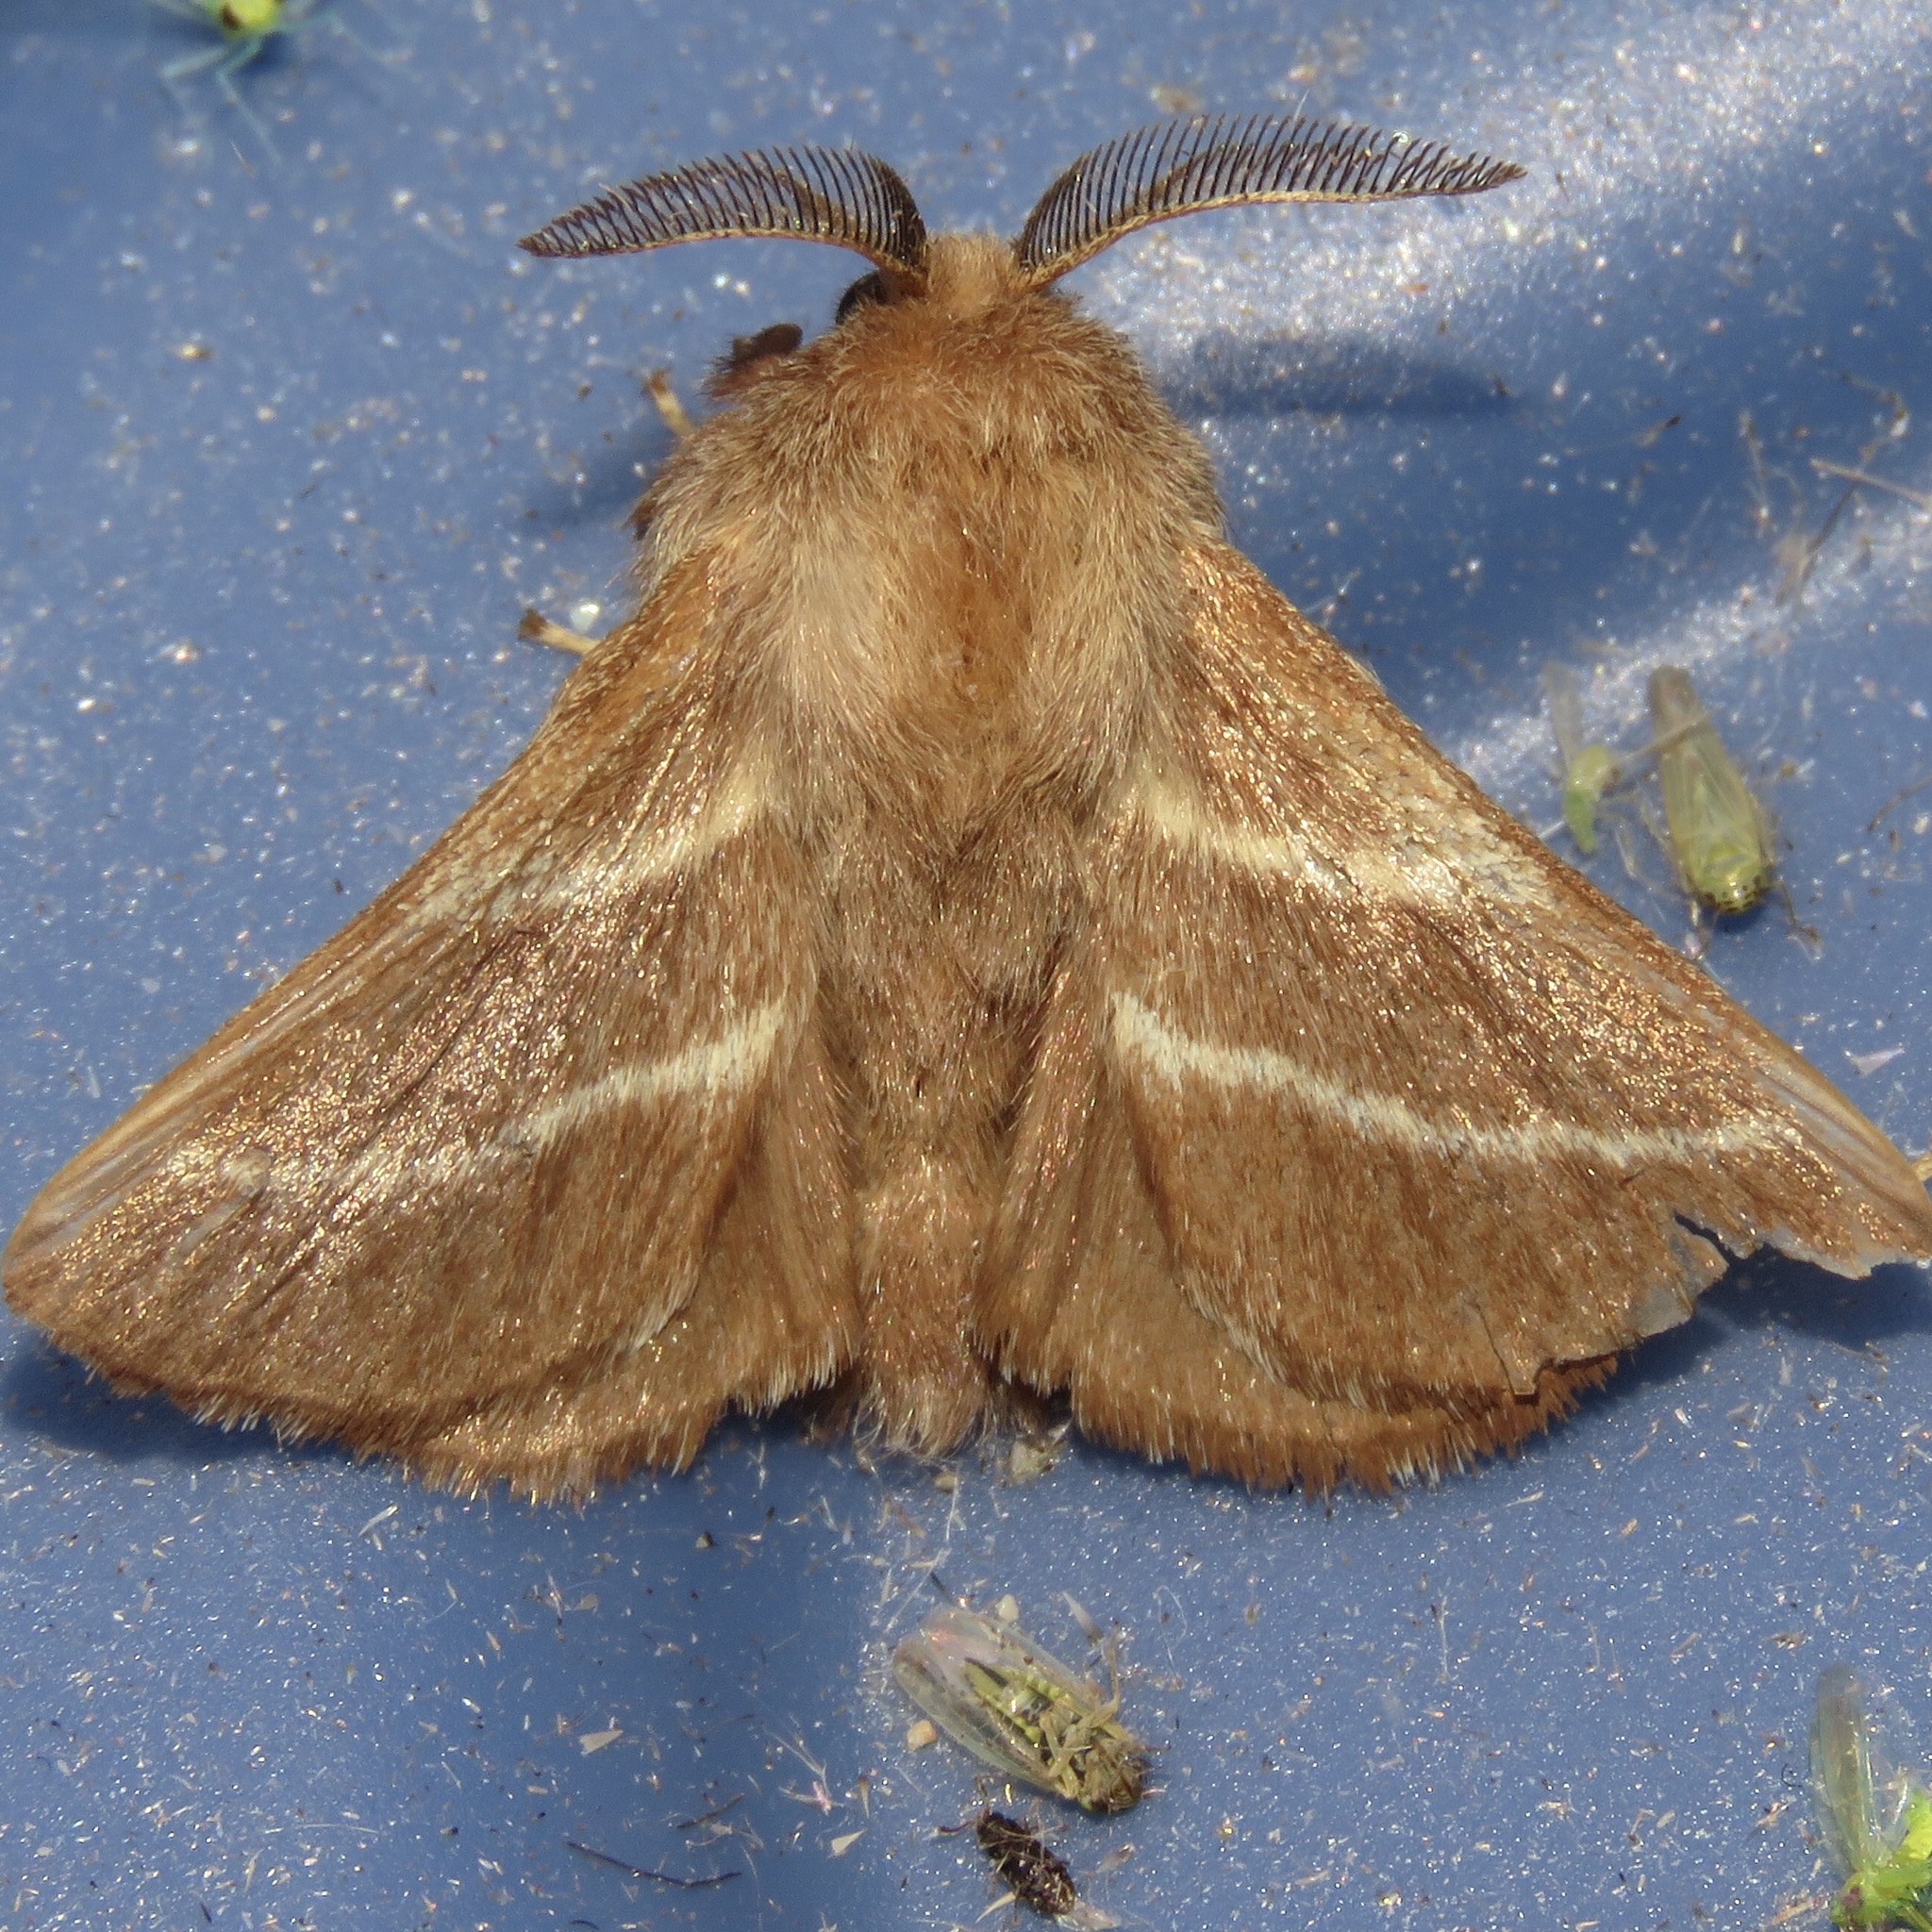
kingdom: Animalia
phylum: Arthropoda
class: Insecta
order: Lepidoptera
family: Lasiocampidae
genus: Malacosoma
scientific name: Malacosoma americana
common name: Eastern tent caterpillar moth
